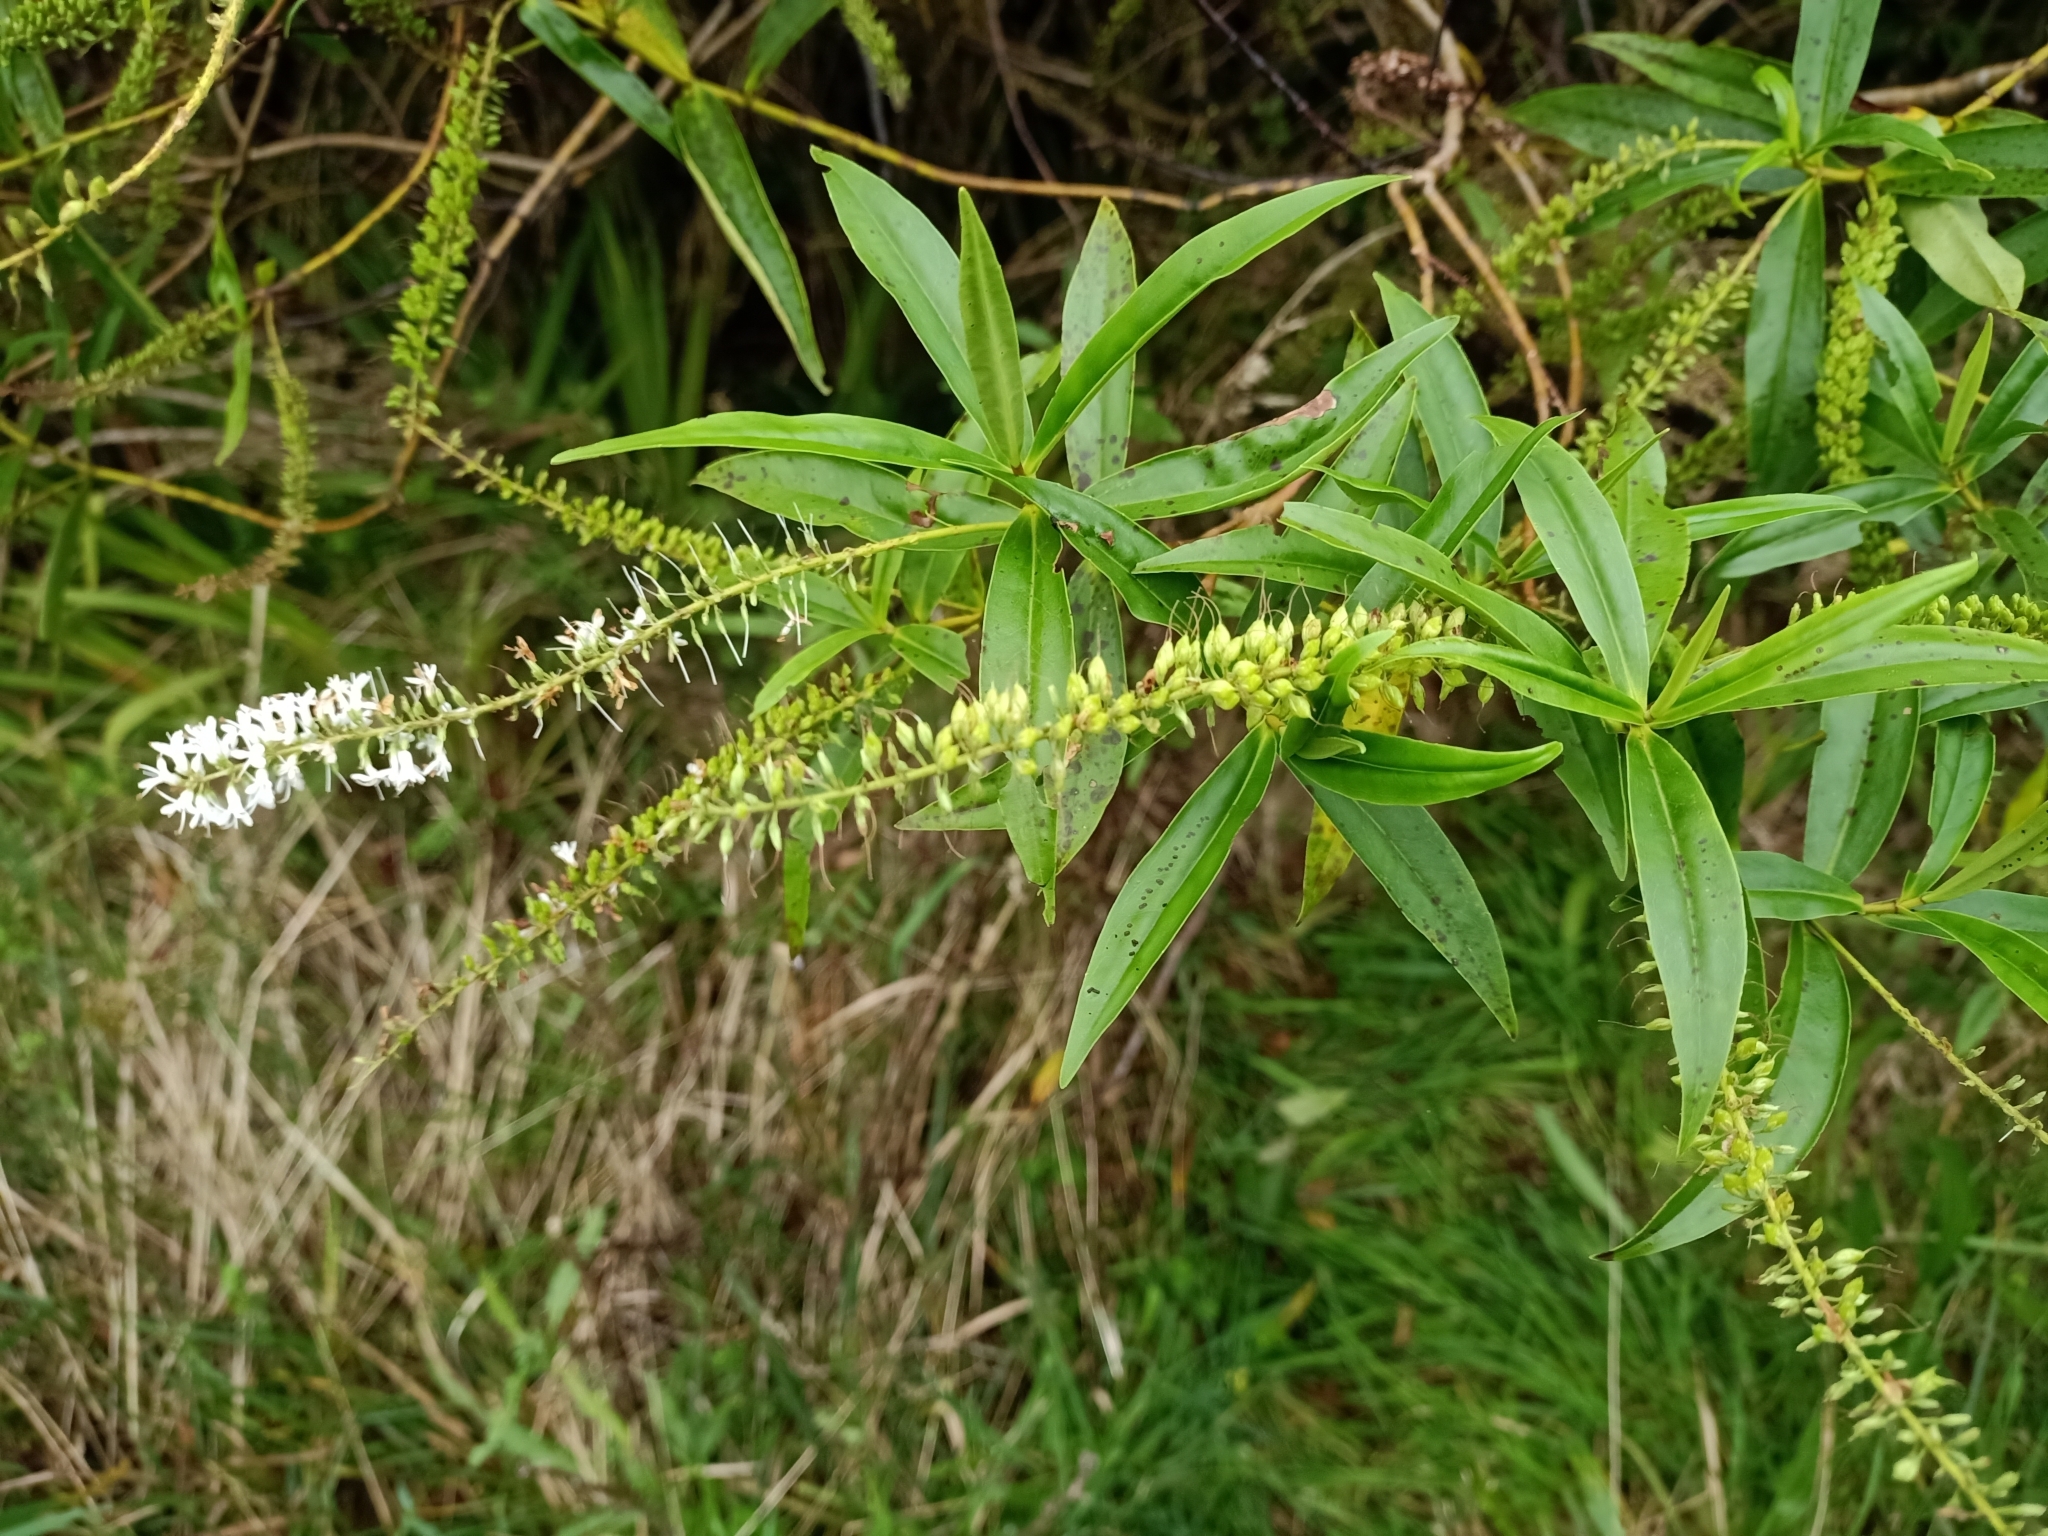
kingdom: Plantae
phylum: Tracheophyta
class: Magnoliopsida
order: Lamiales
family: Plantaginaceae
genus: Veronica
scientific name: Veronica stricta
